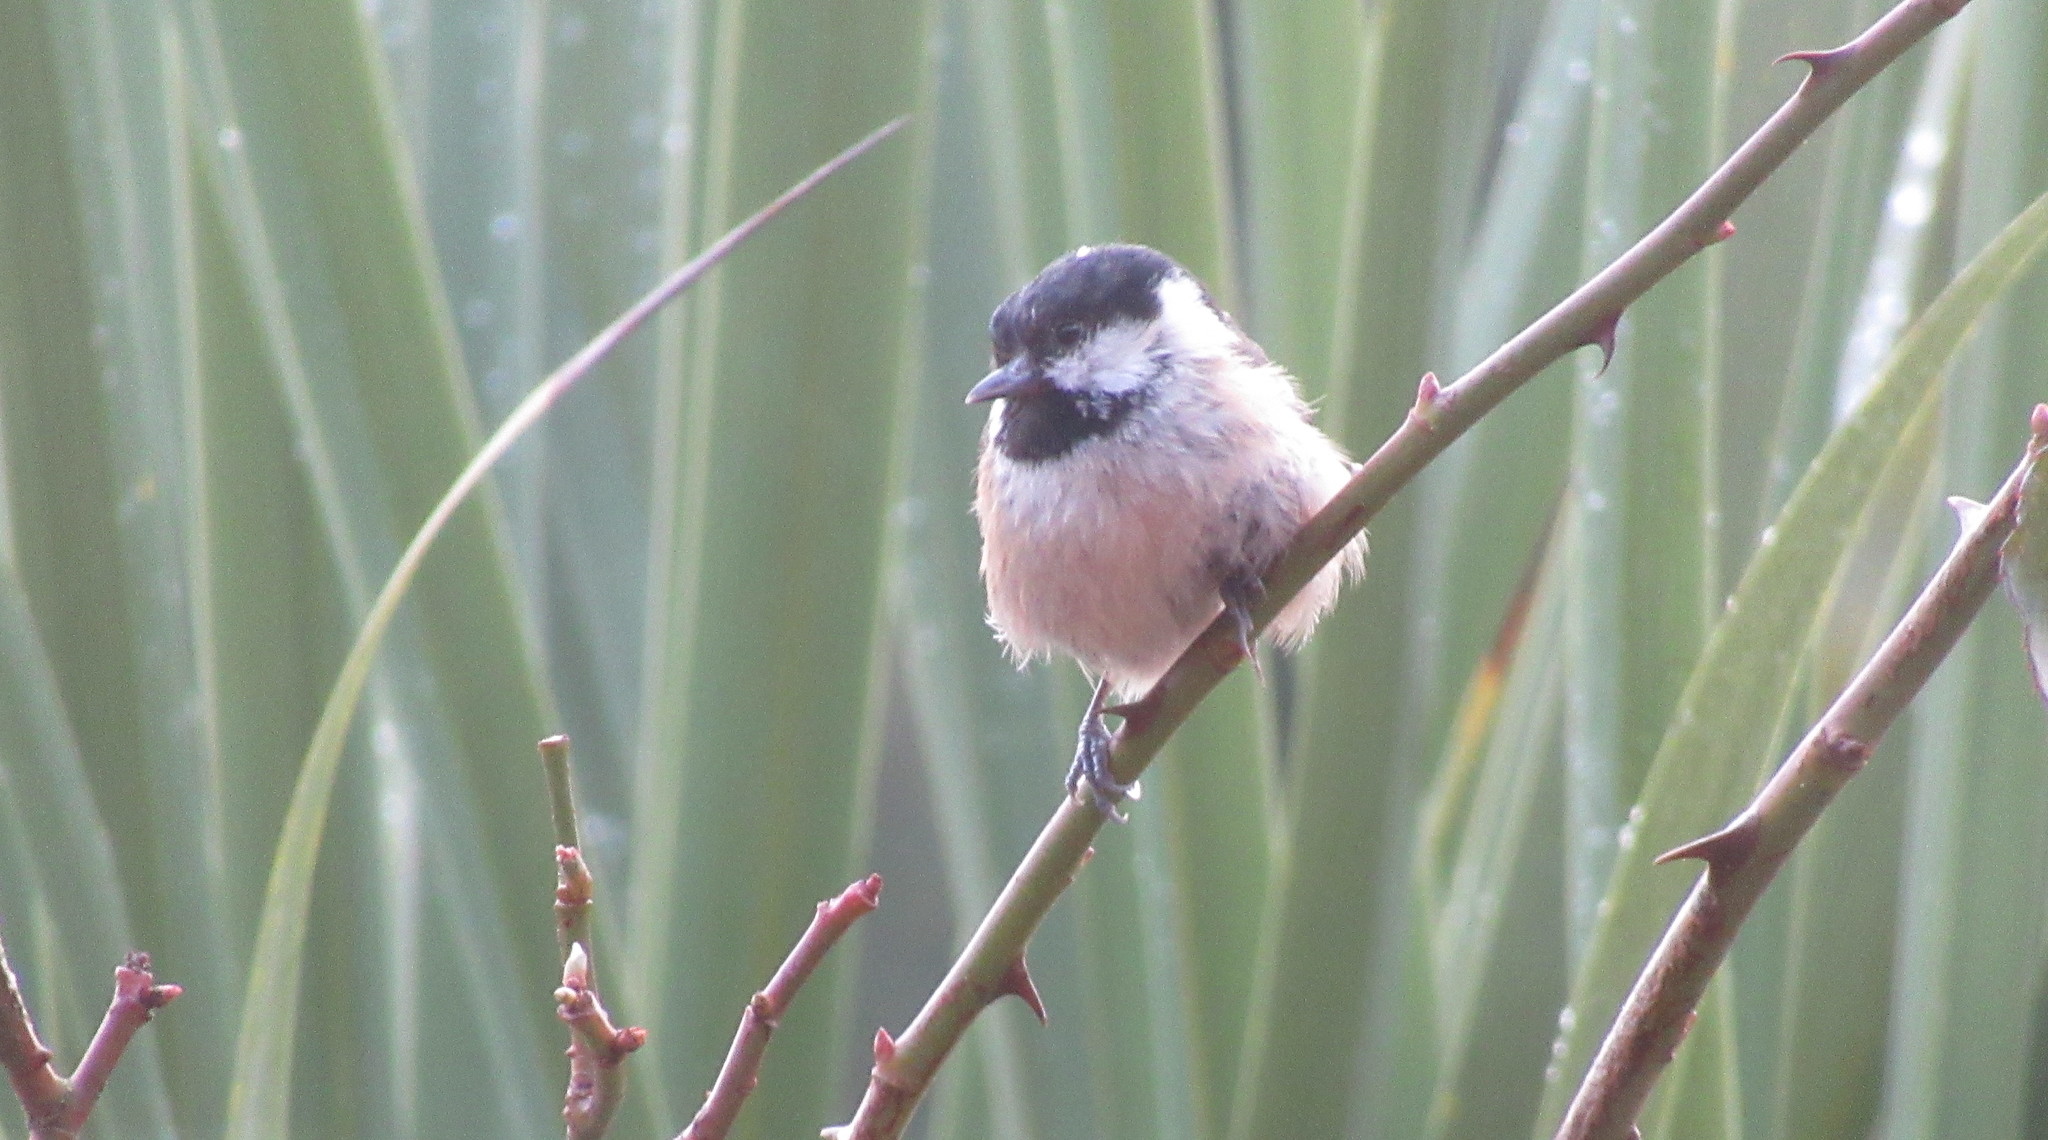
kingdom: Animalia
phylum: Chordata
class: Aves
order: Passeriformes
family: Paridae
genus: Periparus
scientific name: Periparus ater
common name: Coal tit
